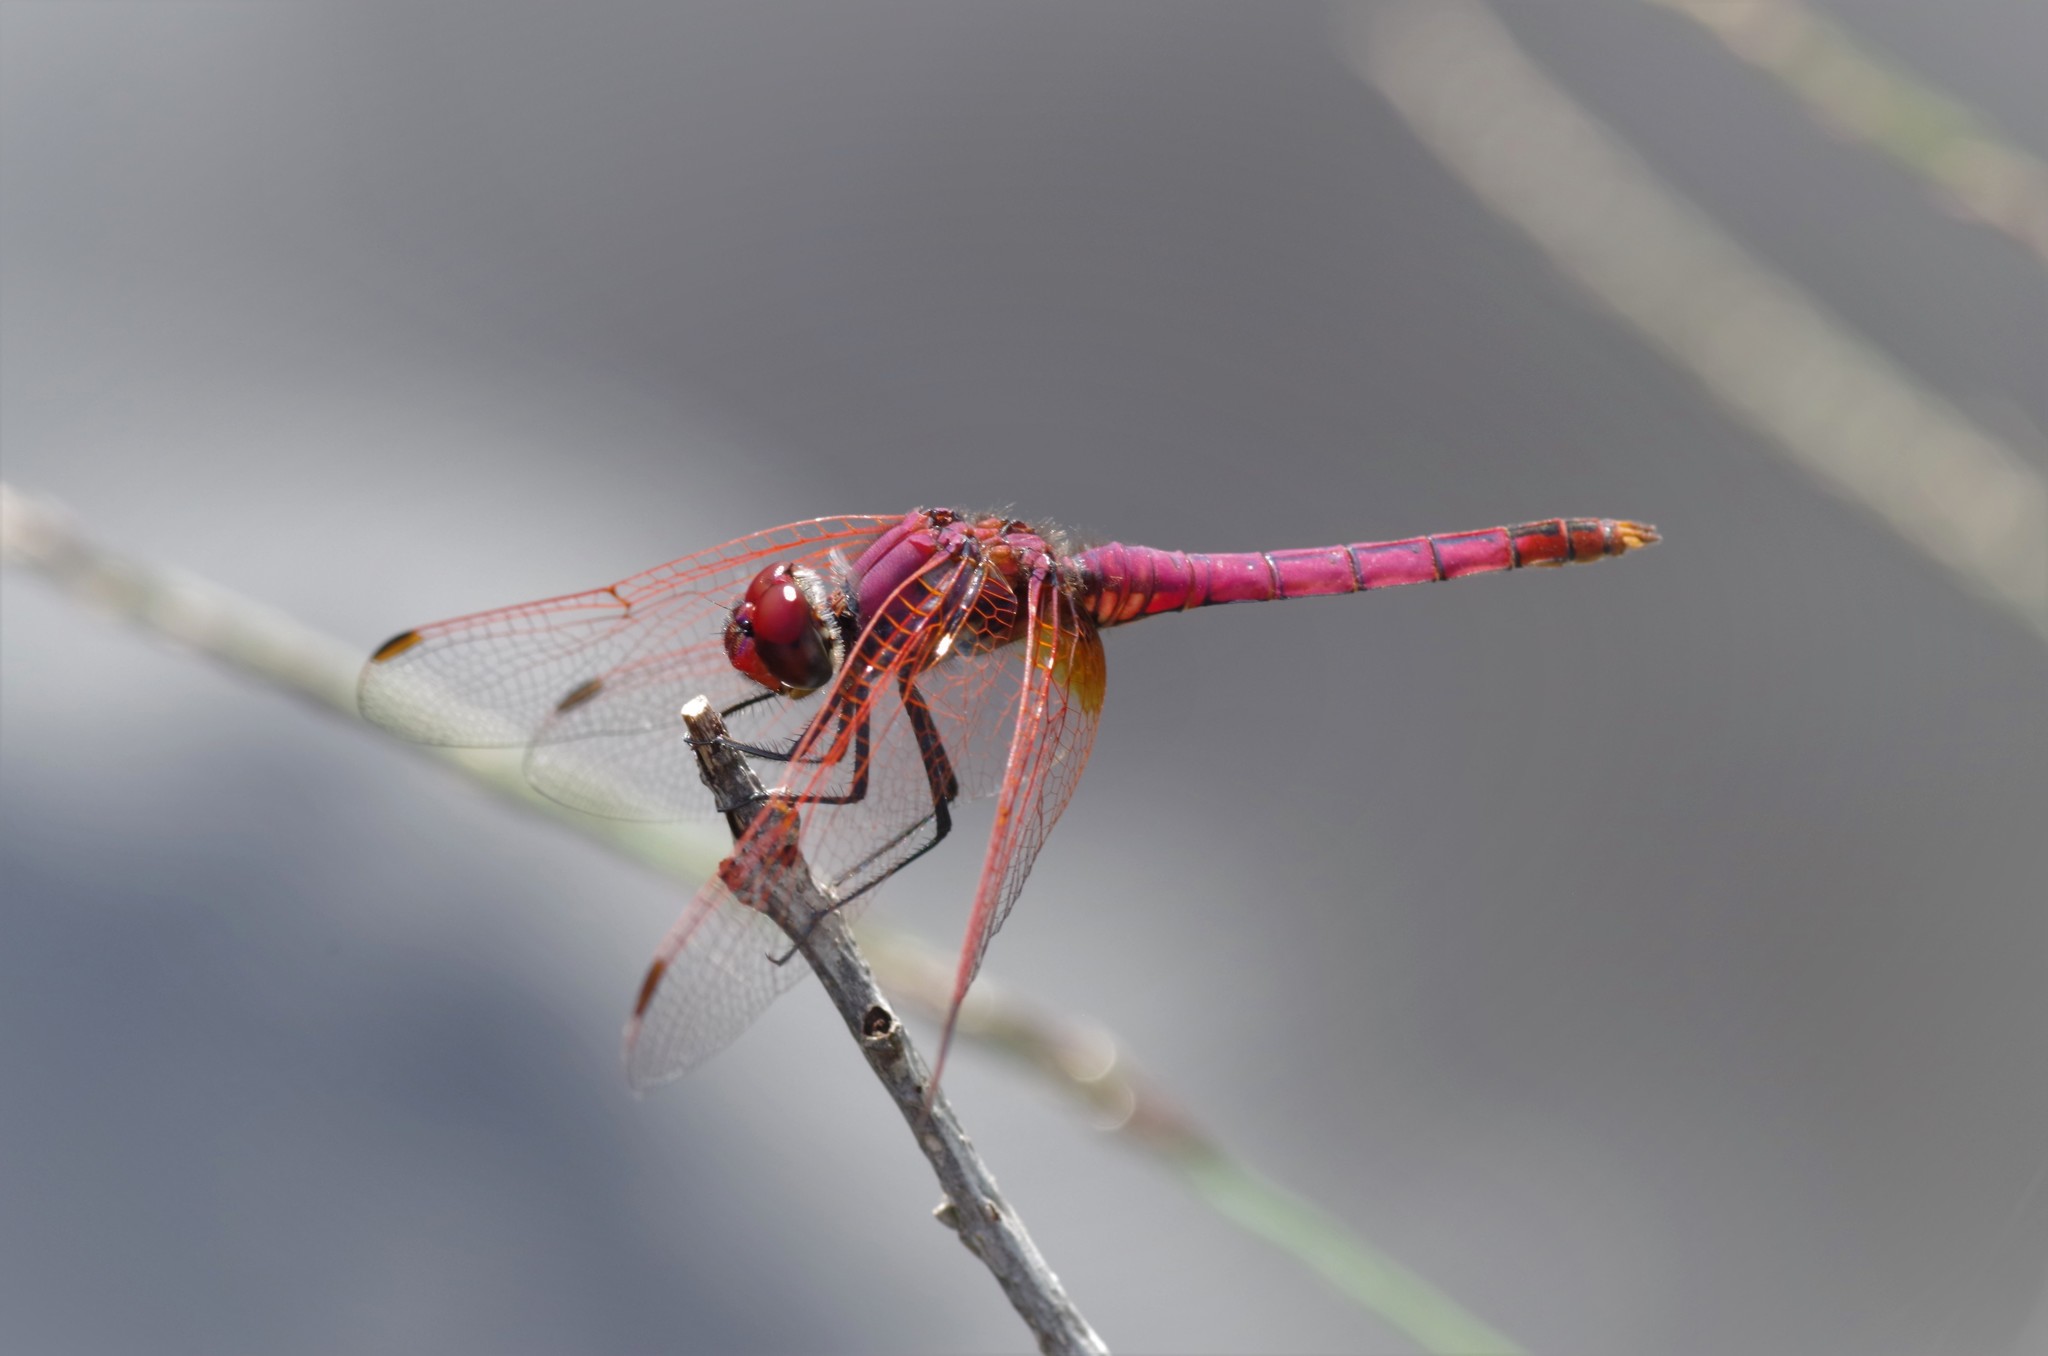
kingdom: Animalia
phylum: Arthropoda
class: Insecta
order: Odonata
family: Libellulidae
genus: Trithemis
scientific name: Trithemis annulata
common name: Violet dropwing
